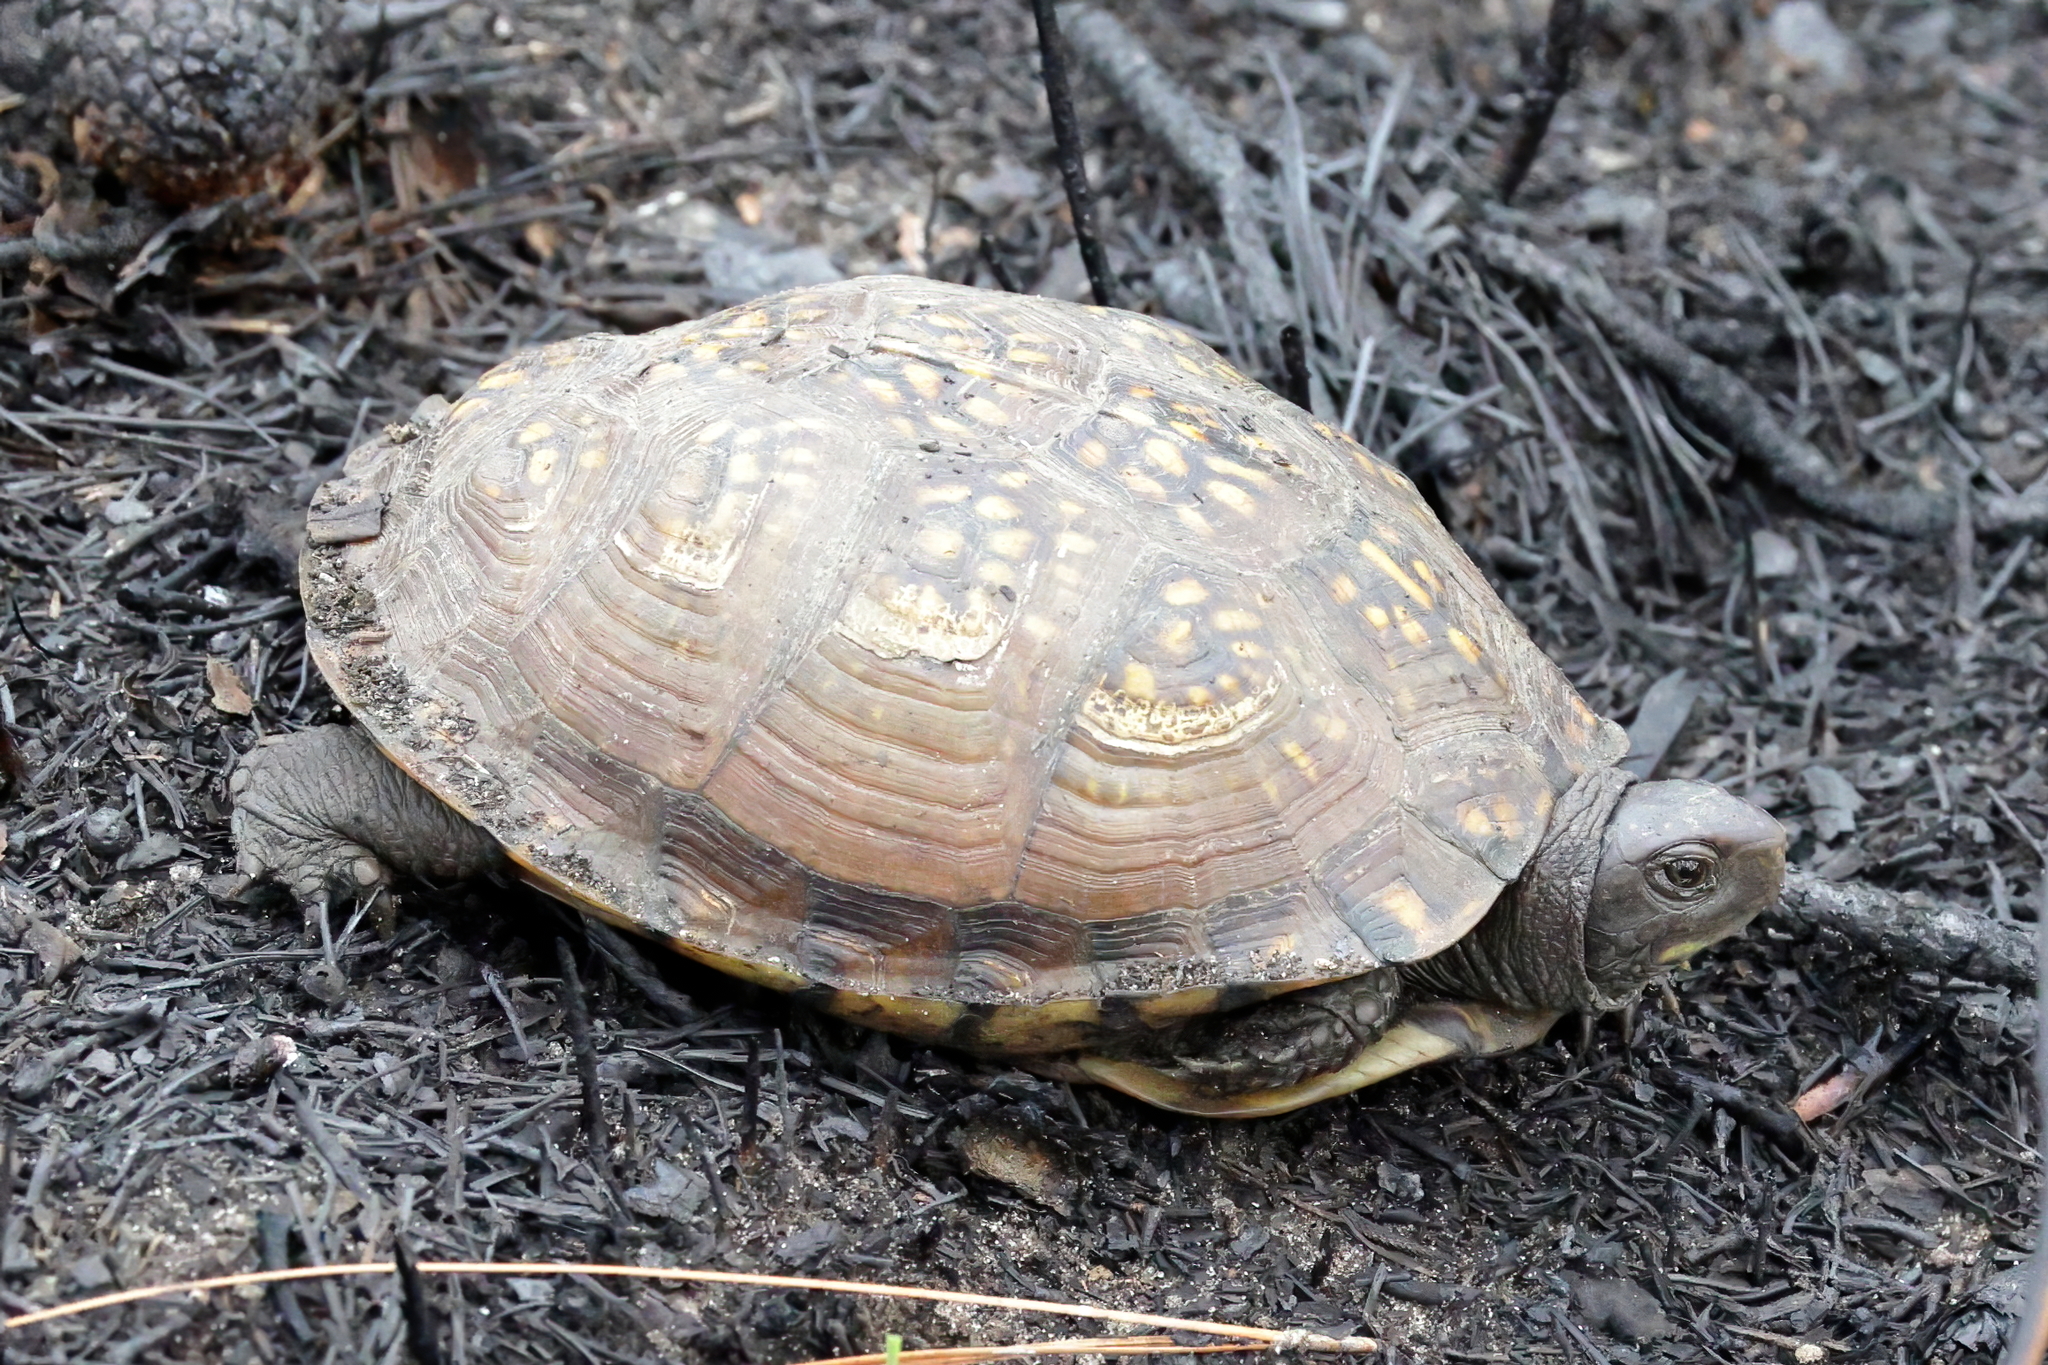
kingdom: Animalia
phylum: Chordata
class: Testudines
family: Emydidae
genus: Terrapene
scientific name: Terrapene carolina
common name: Common box turtle
